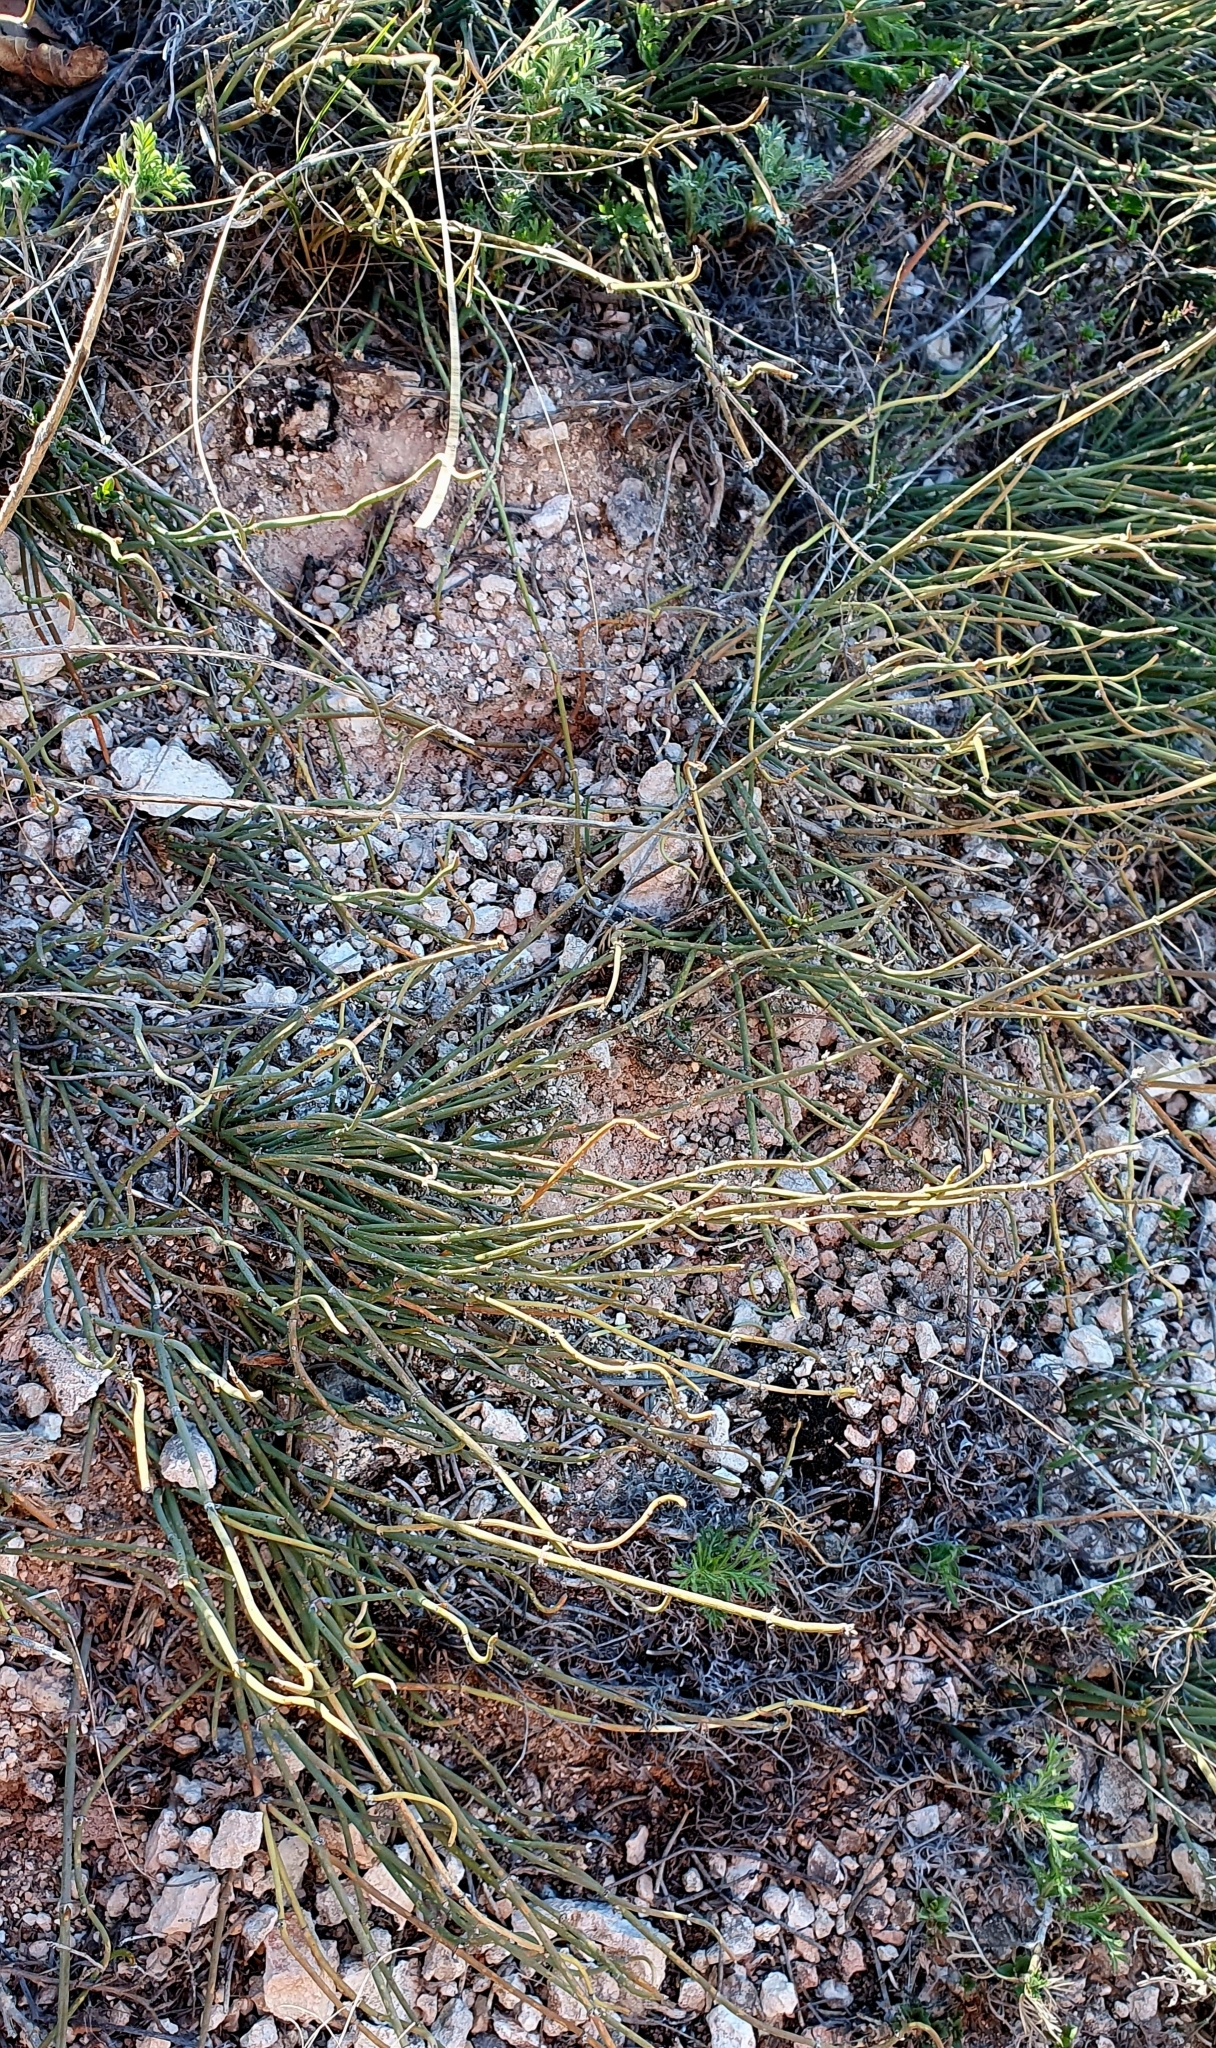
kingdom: Plantae
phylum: Tracheophyta
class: Gnetopsida
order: Ephedrales
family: Ephedraceae
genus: Ephedra
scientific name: Ephedra distachya
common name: Sea grape
